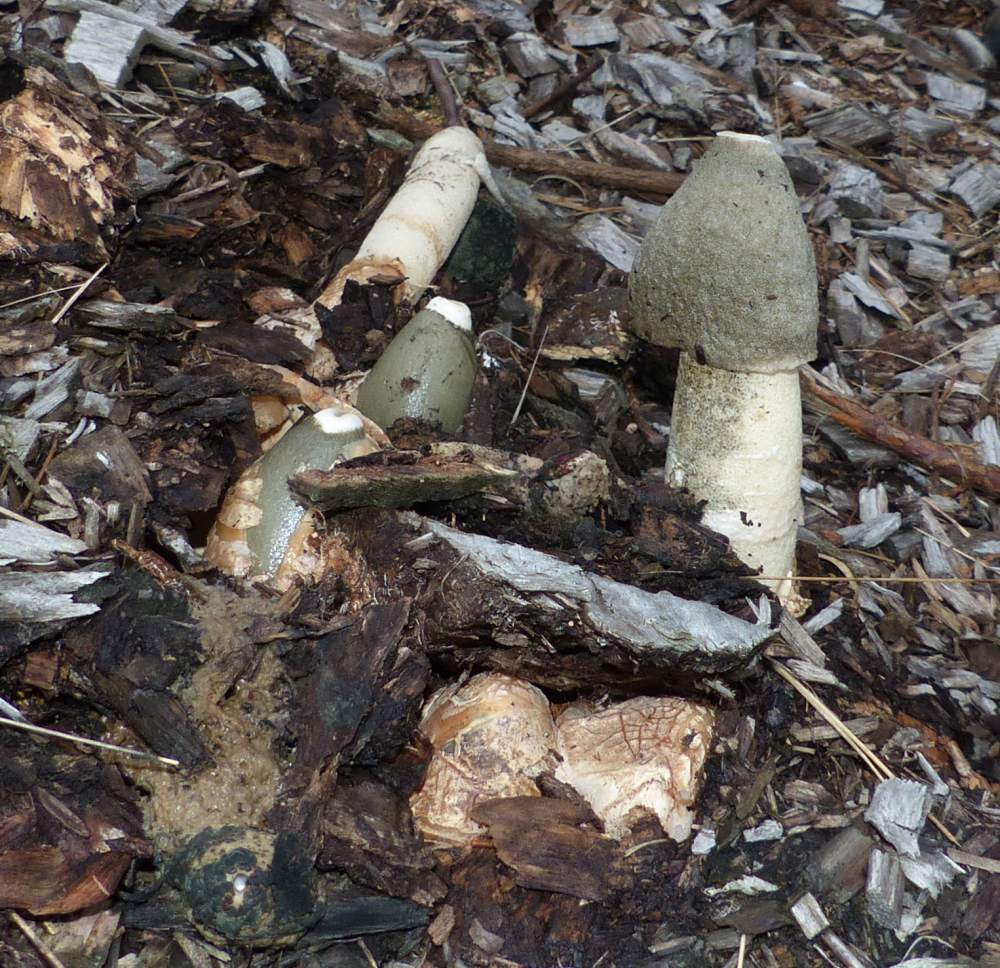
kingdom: Fungi
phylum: Basidiomycota
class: Agaricomycetes
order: Phallales
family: Phallaceae
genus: Phallus
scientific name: Phallus ravenelii
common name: Ravenel's stinkhorn
